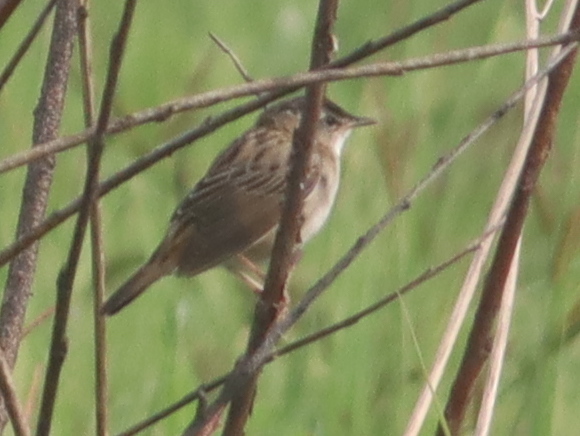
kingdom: Animalia
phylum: Chordata
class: Aves
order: Passeriformes
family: Locustellidae
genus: Locustella
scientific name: Locustella certhiola
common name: Pallas's grasshopper warbler
